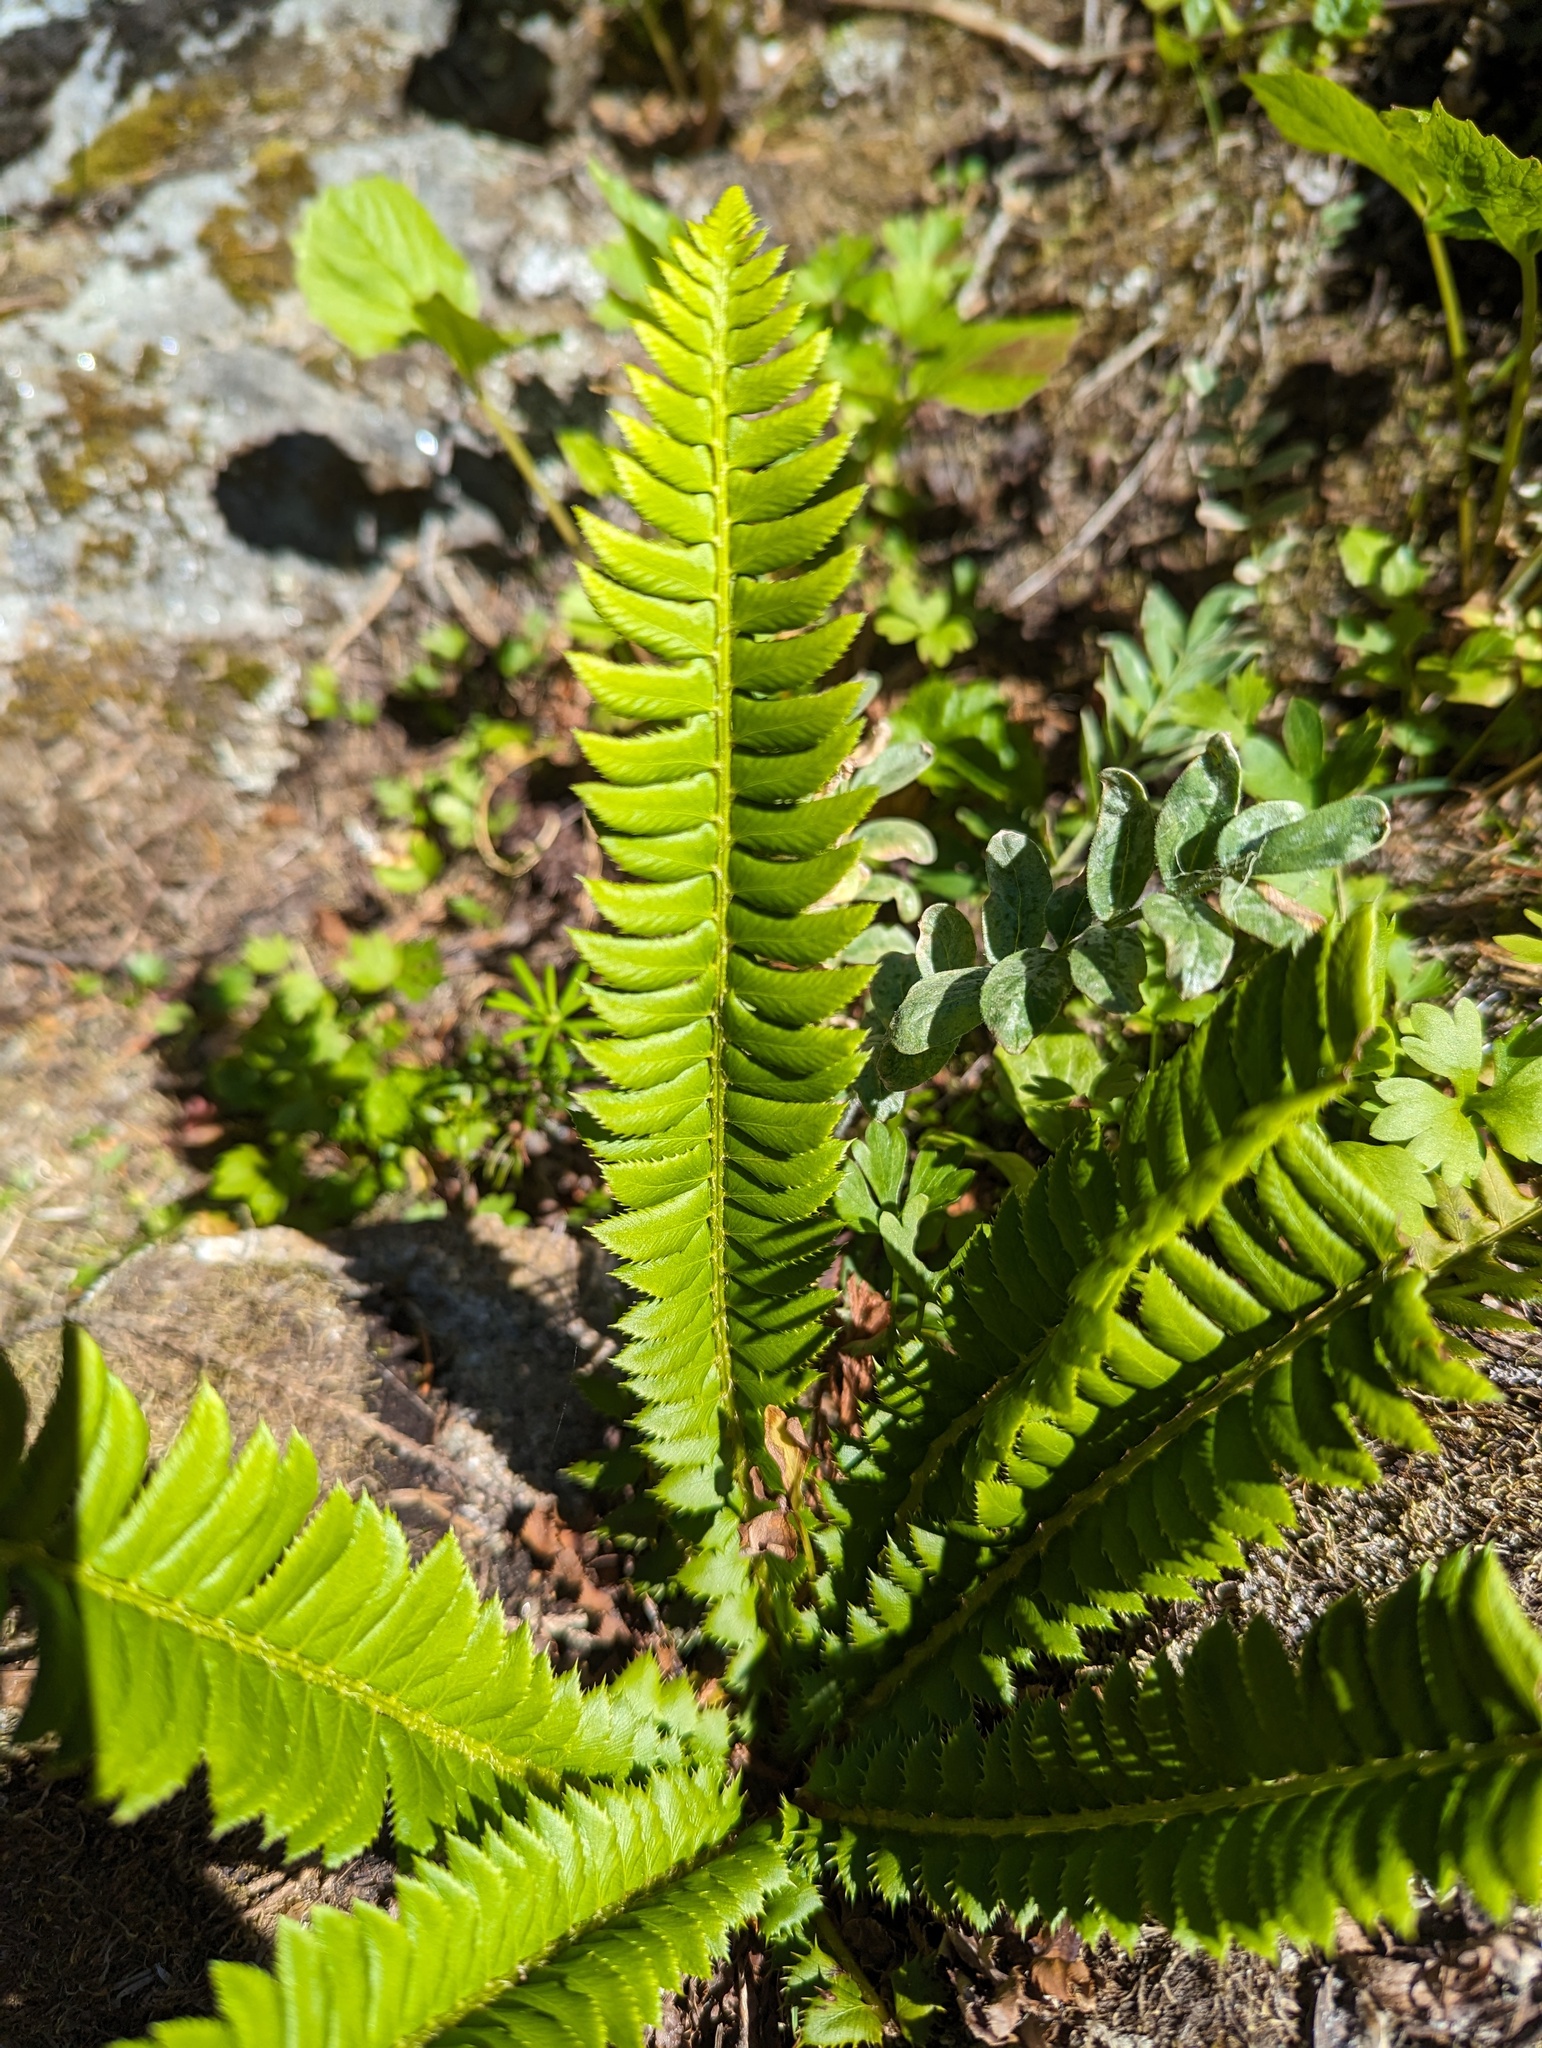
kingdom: Plantae
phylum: Tracheophyta
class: Polypodiopsida
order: Polypodiales
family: Dryopteridaceae
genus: Polystichum
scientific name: Polystichum lonchitis
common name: Holly fern
